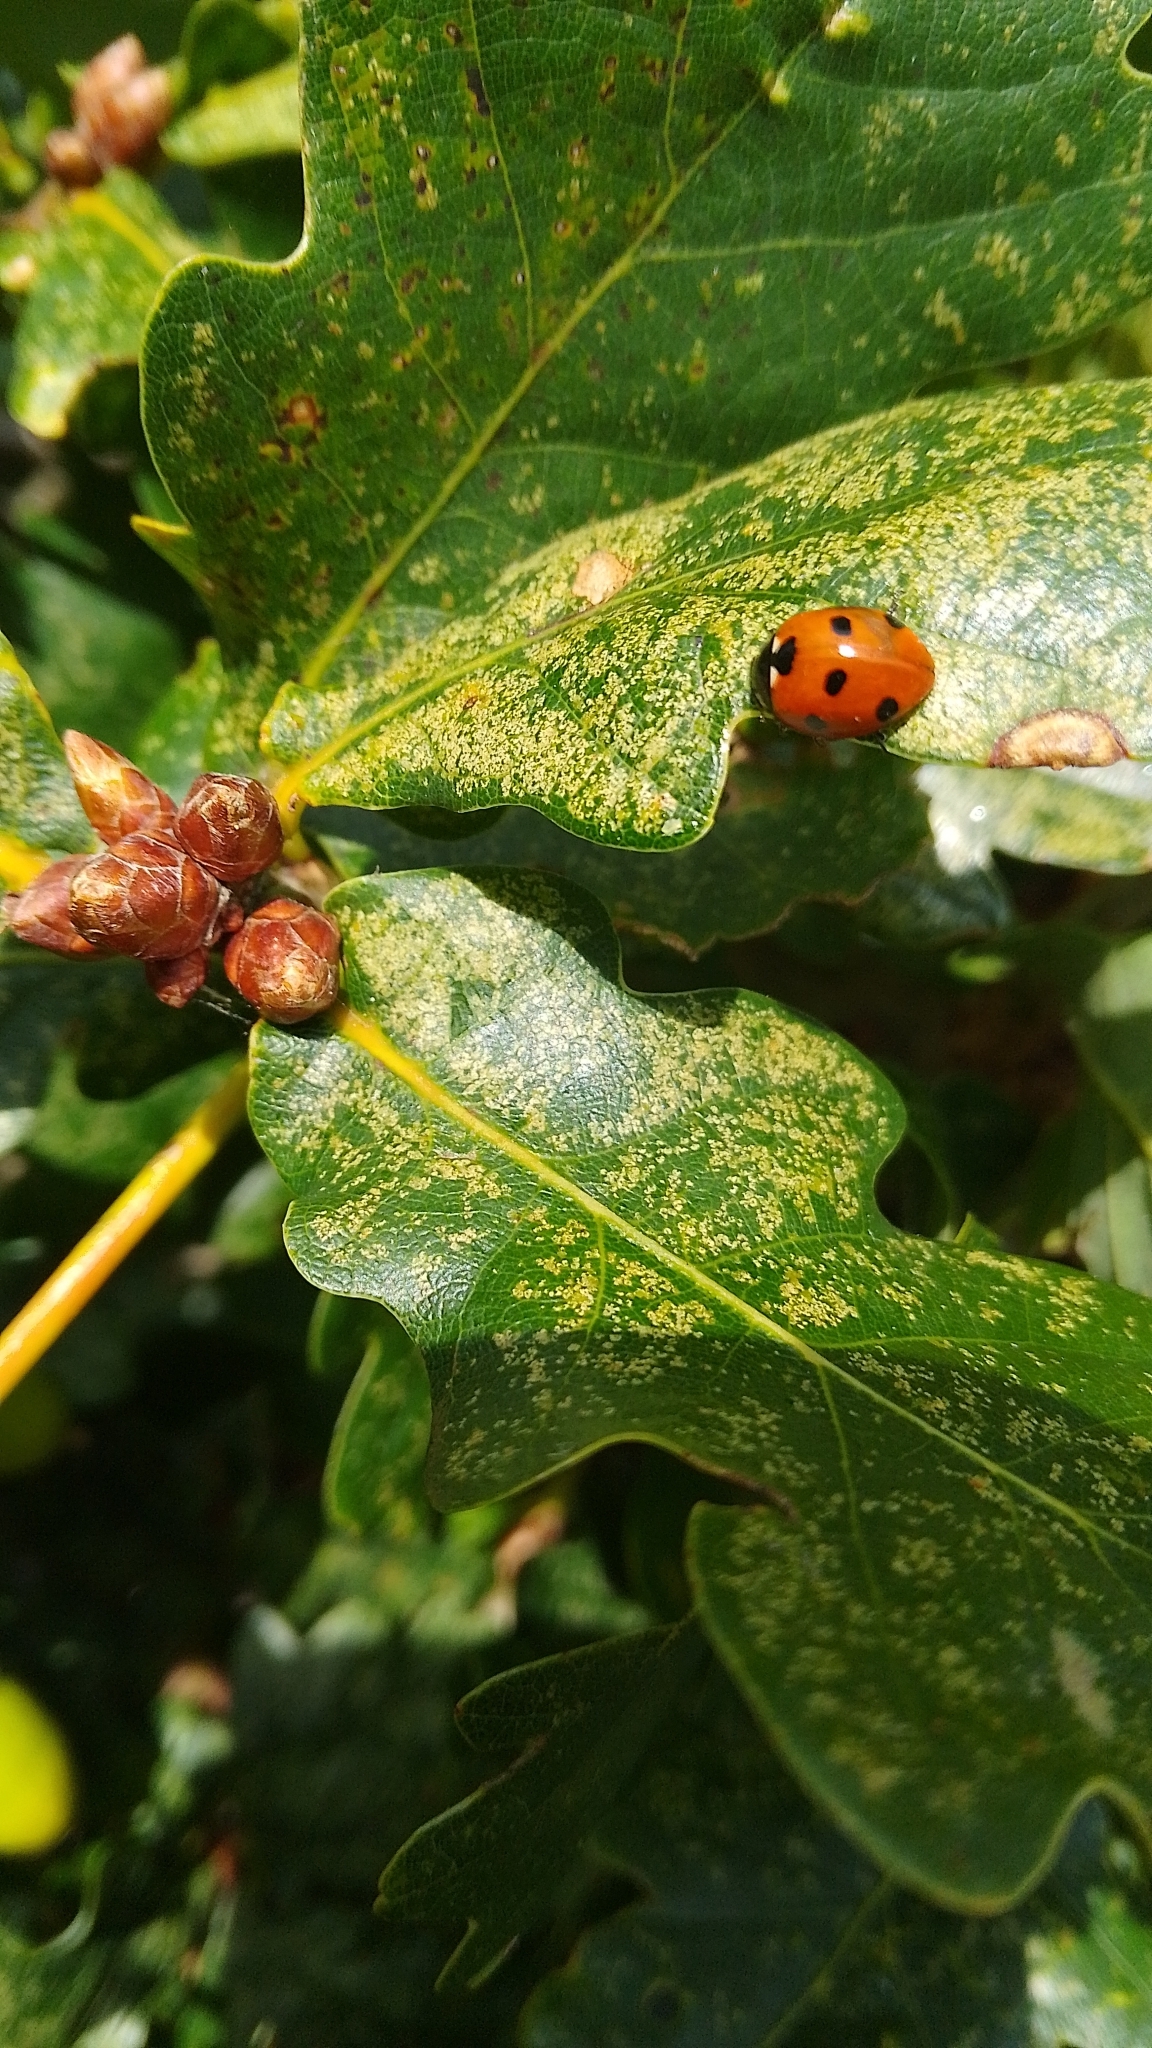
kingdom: Animalia
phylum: Arthropoda
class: Insecta
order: Coleoptera
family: Coccinellidae
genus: Coccinella
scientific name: Coccinella septempunctata
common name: Sevenspotted lady beetle
